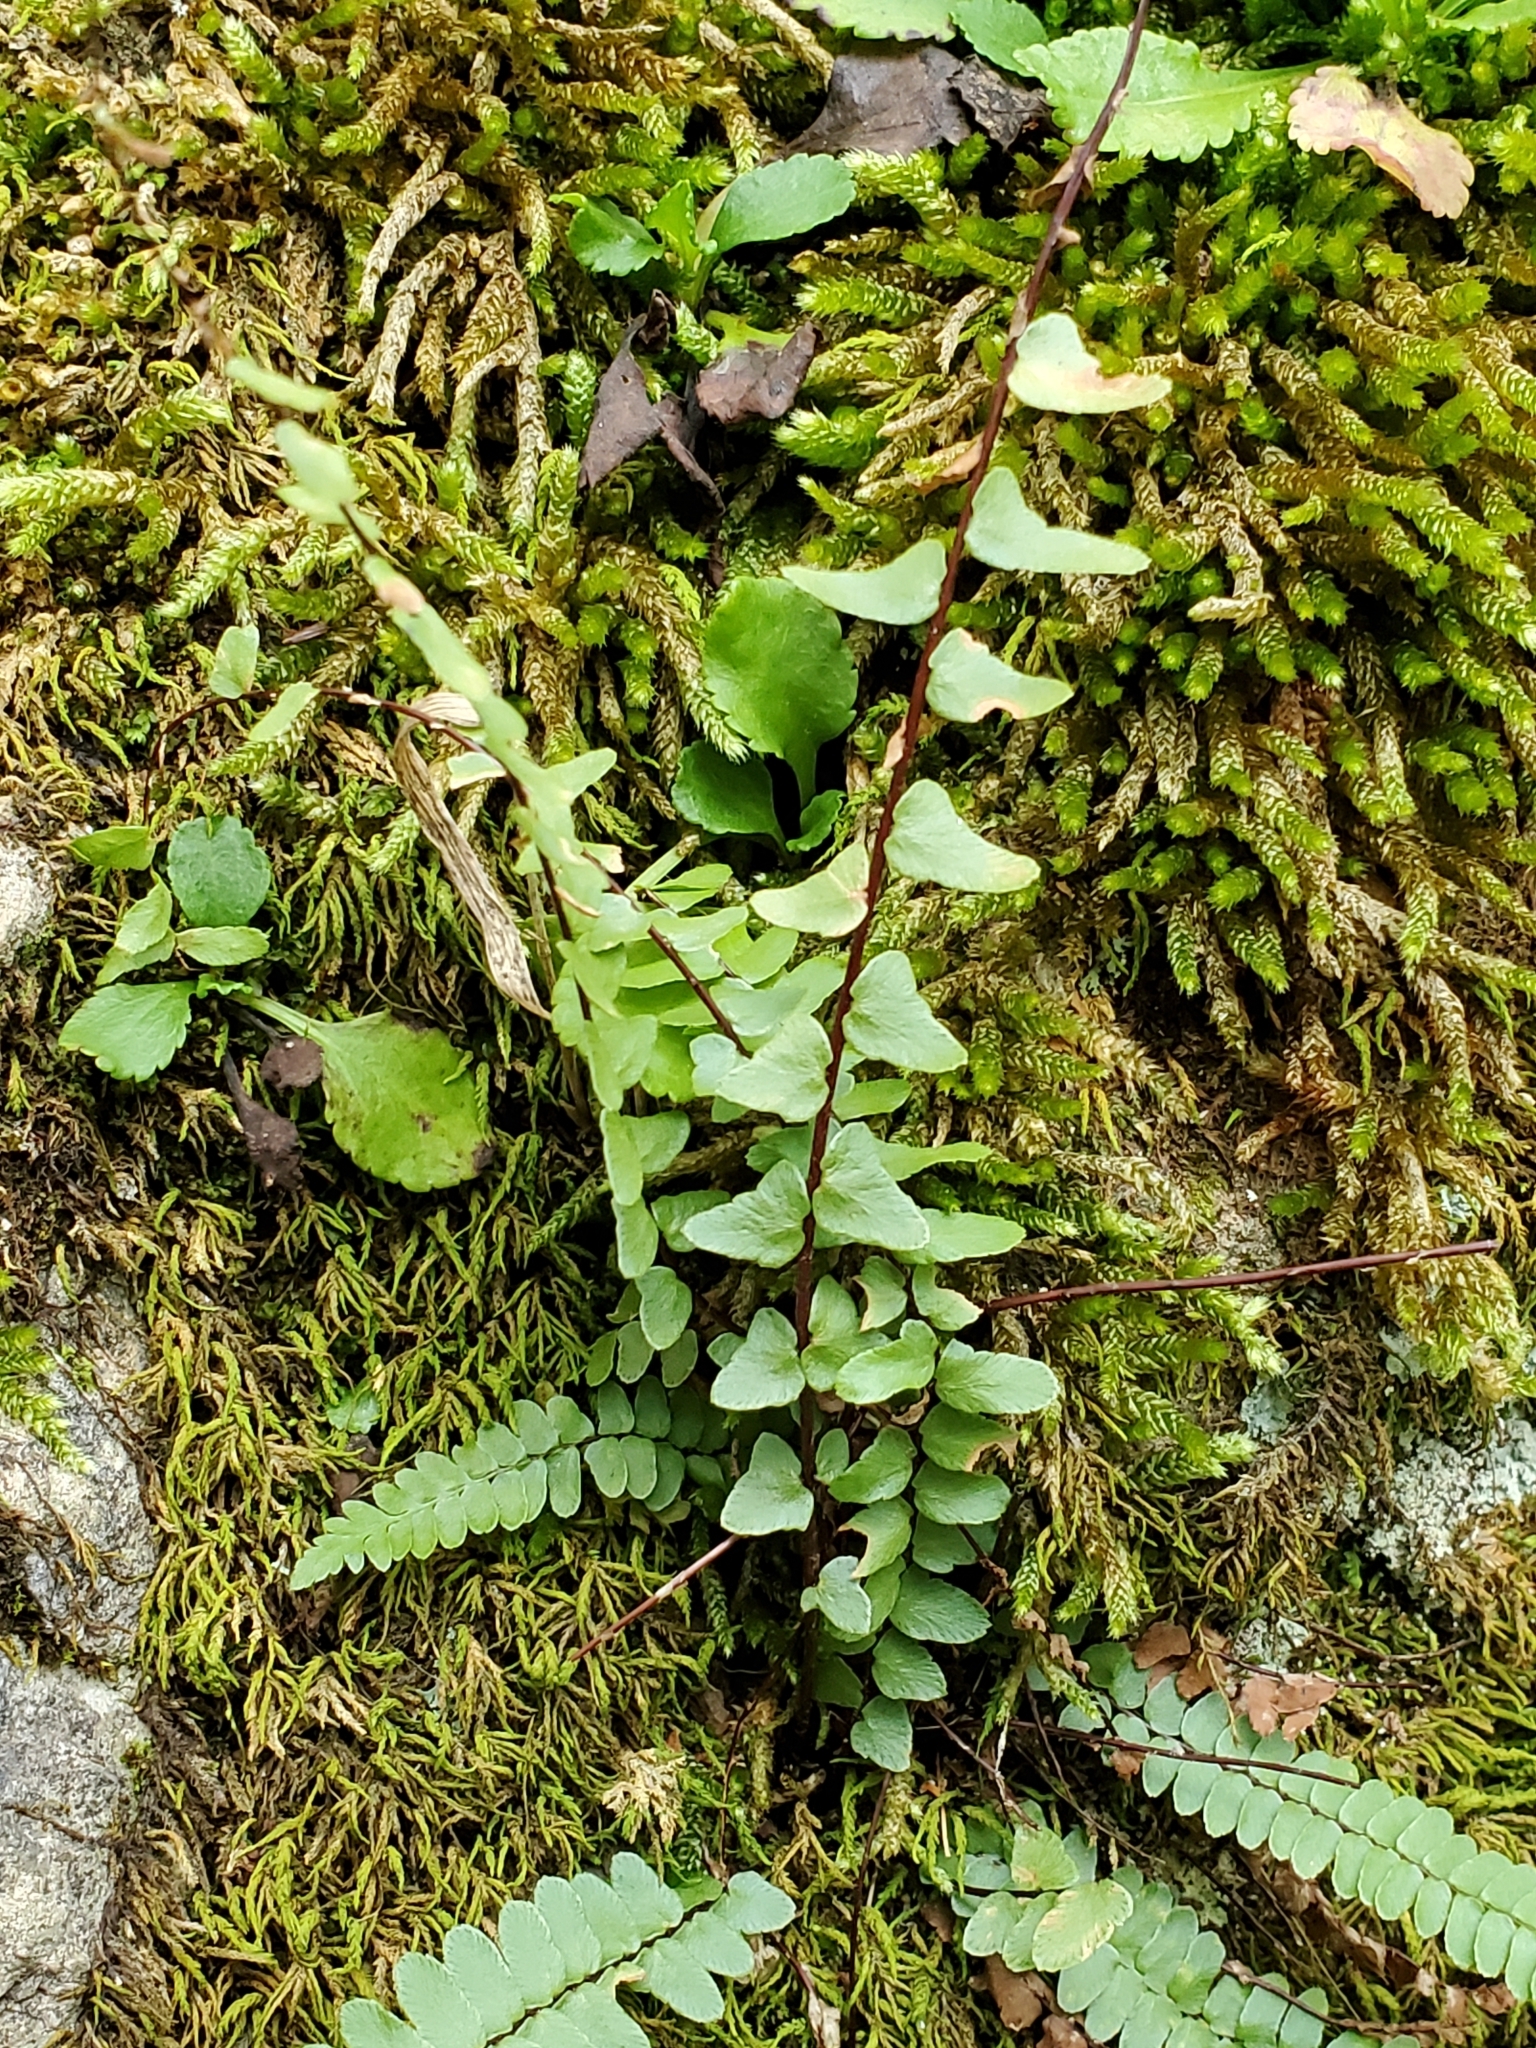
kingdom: Plantae
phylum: Tracheophyta
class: Polypodiopsida
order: Polypodiales
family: Aspleniaceae
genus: Asplenium
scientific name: Asplenium platyneuron
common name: Ebony spleenwort
